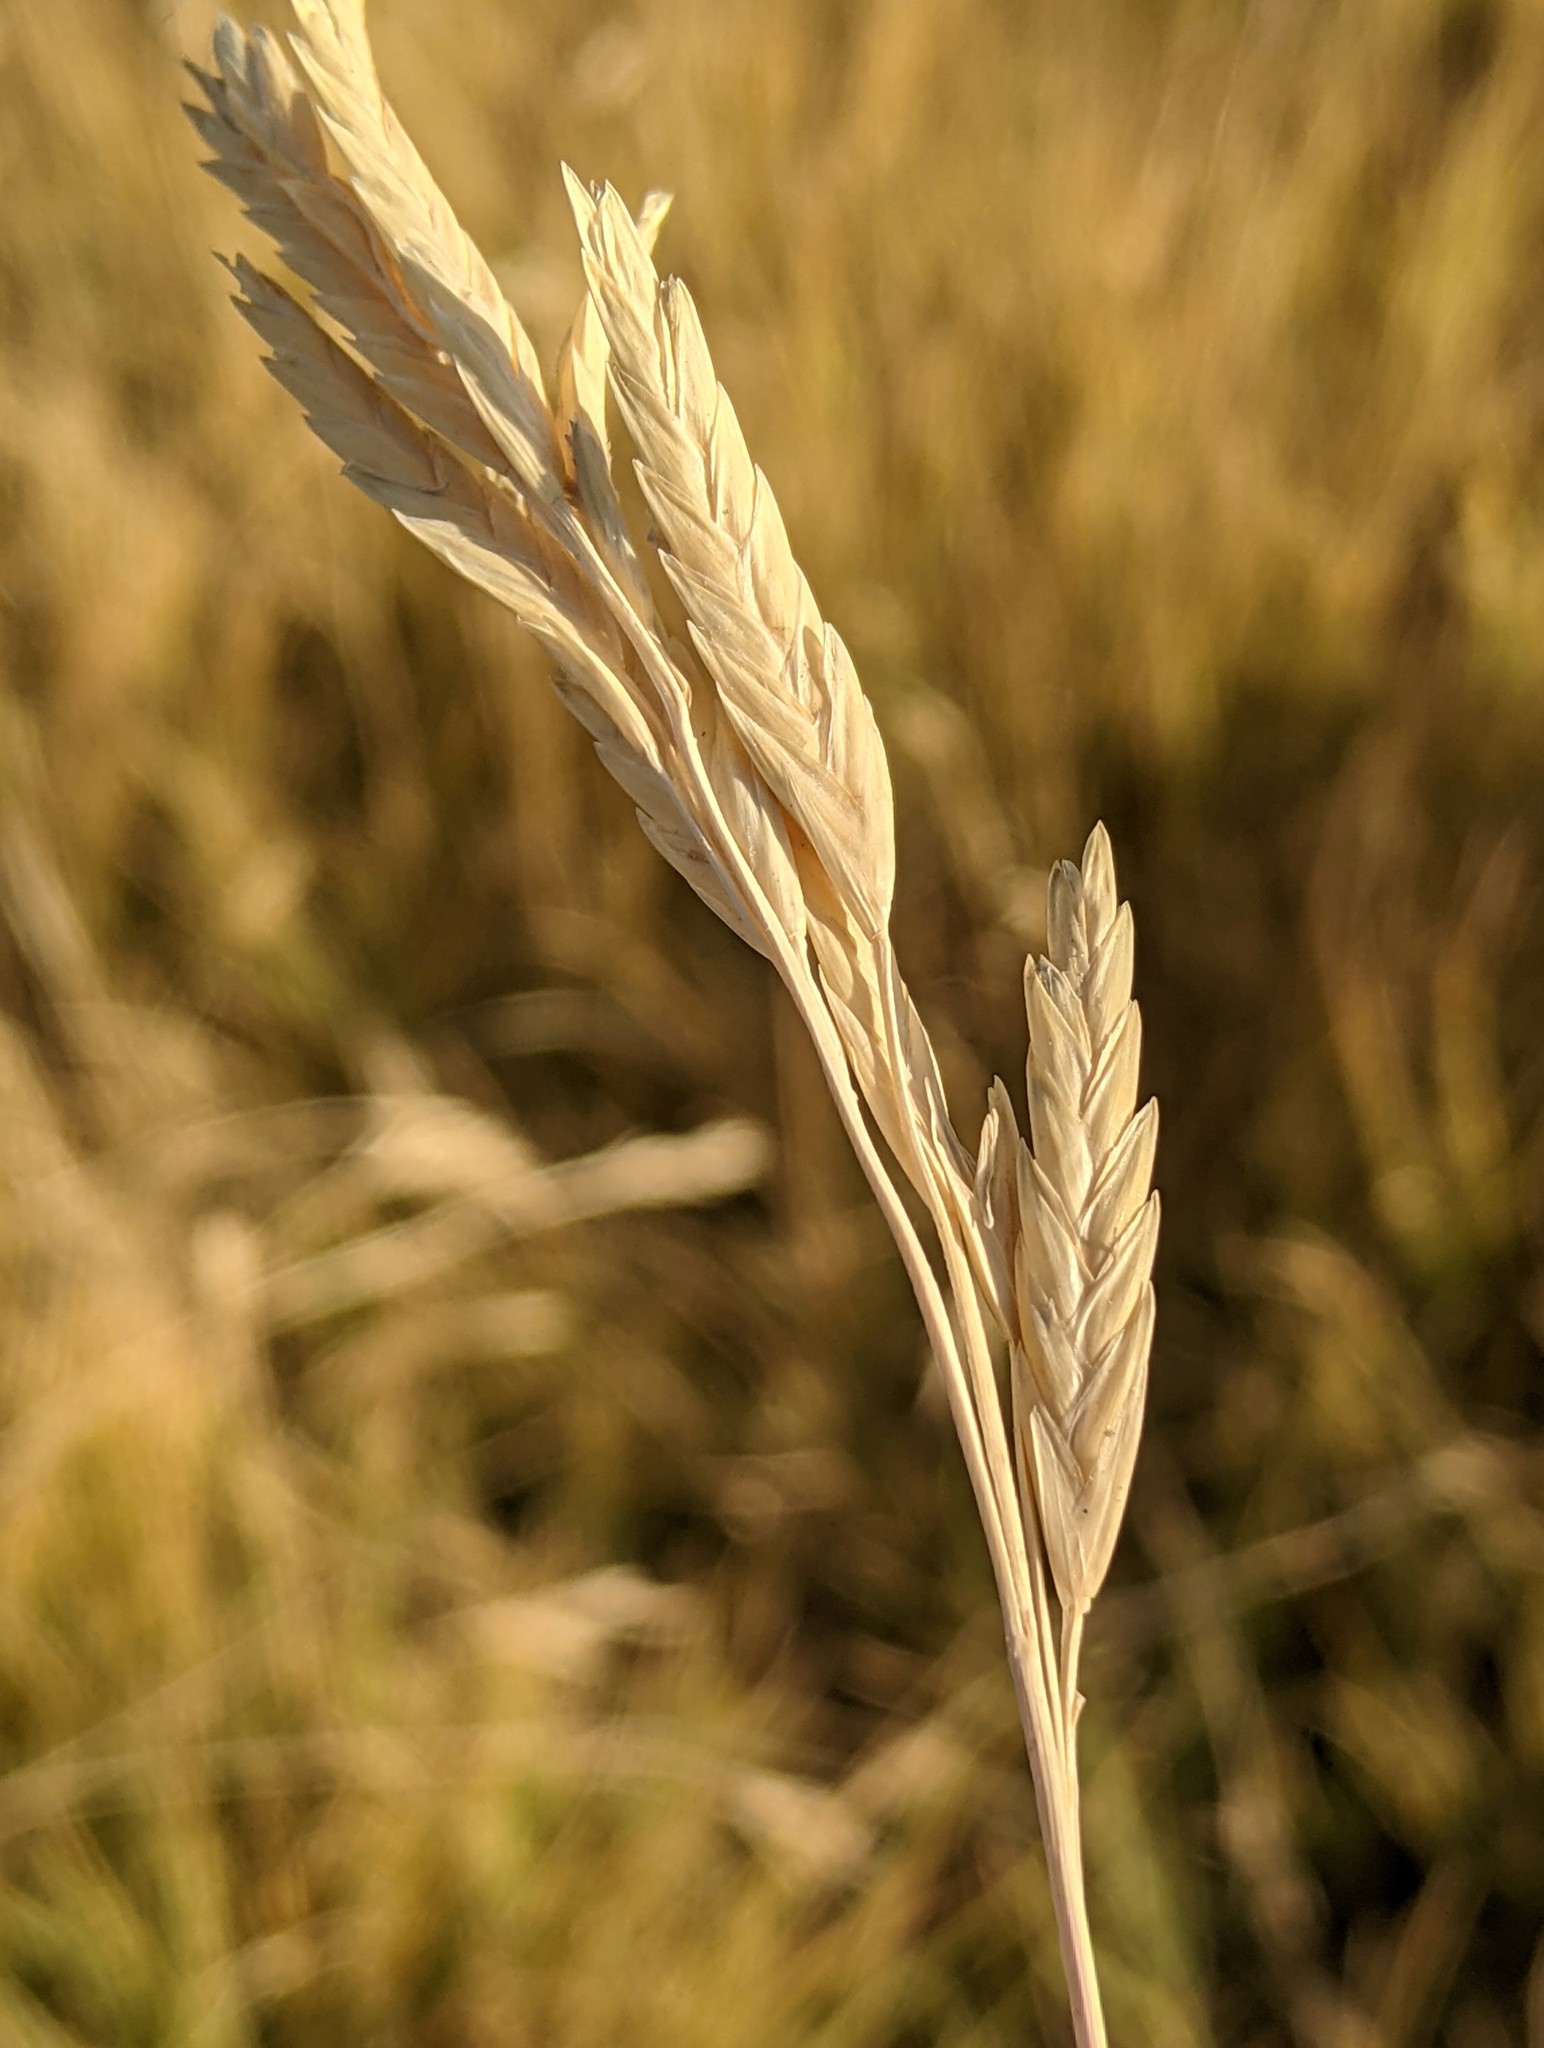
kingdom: Plantae
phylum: Tracheophyta
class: Liliopsida
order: Poales
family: Poaceae
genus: Distichlis
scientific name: Distichlis spicata
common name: Saltgrass
